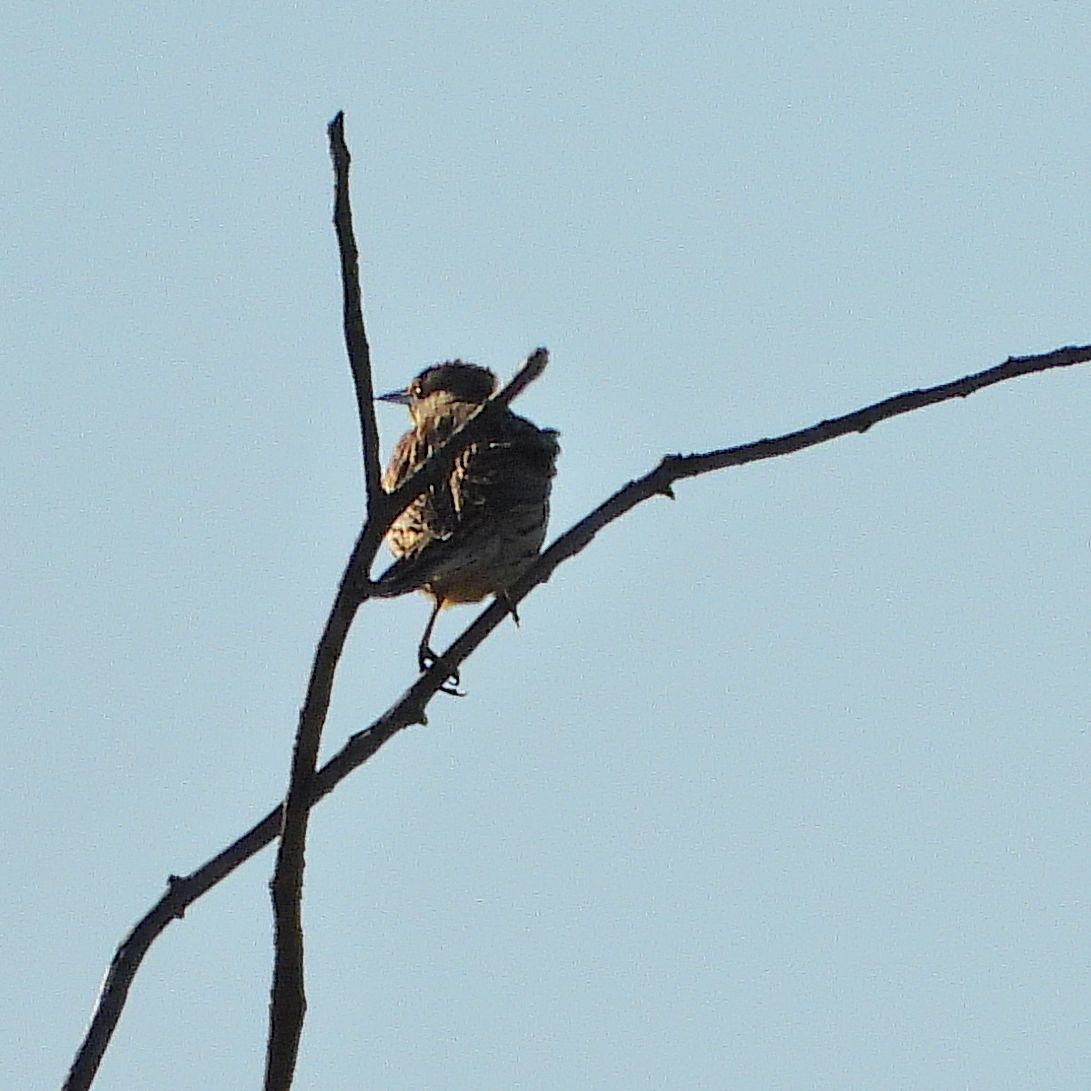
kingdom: Animalia
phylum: Chordata
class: Aves
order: Passeriformes
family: Icteridae
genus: Sturnella
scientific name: Sturnella magna
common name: Eastern meadowlark
